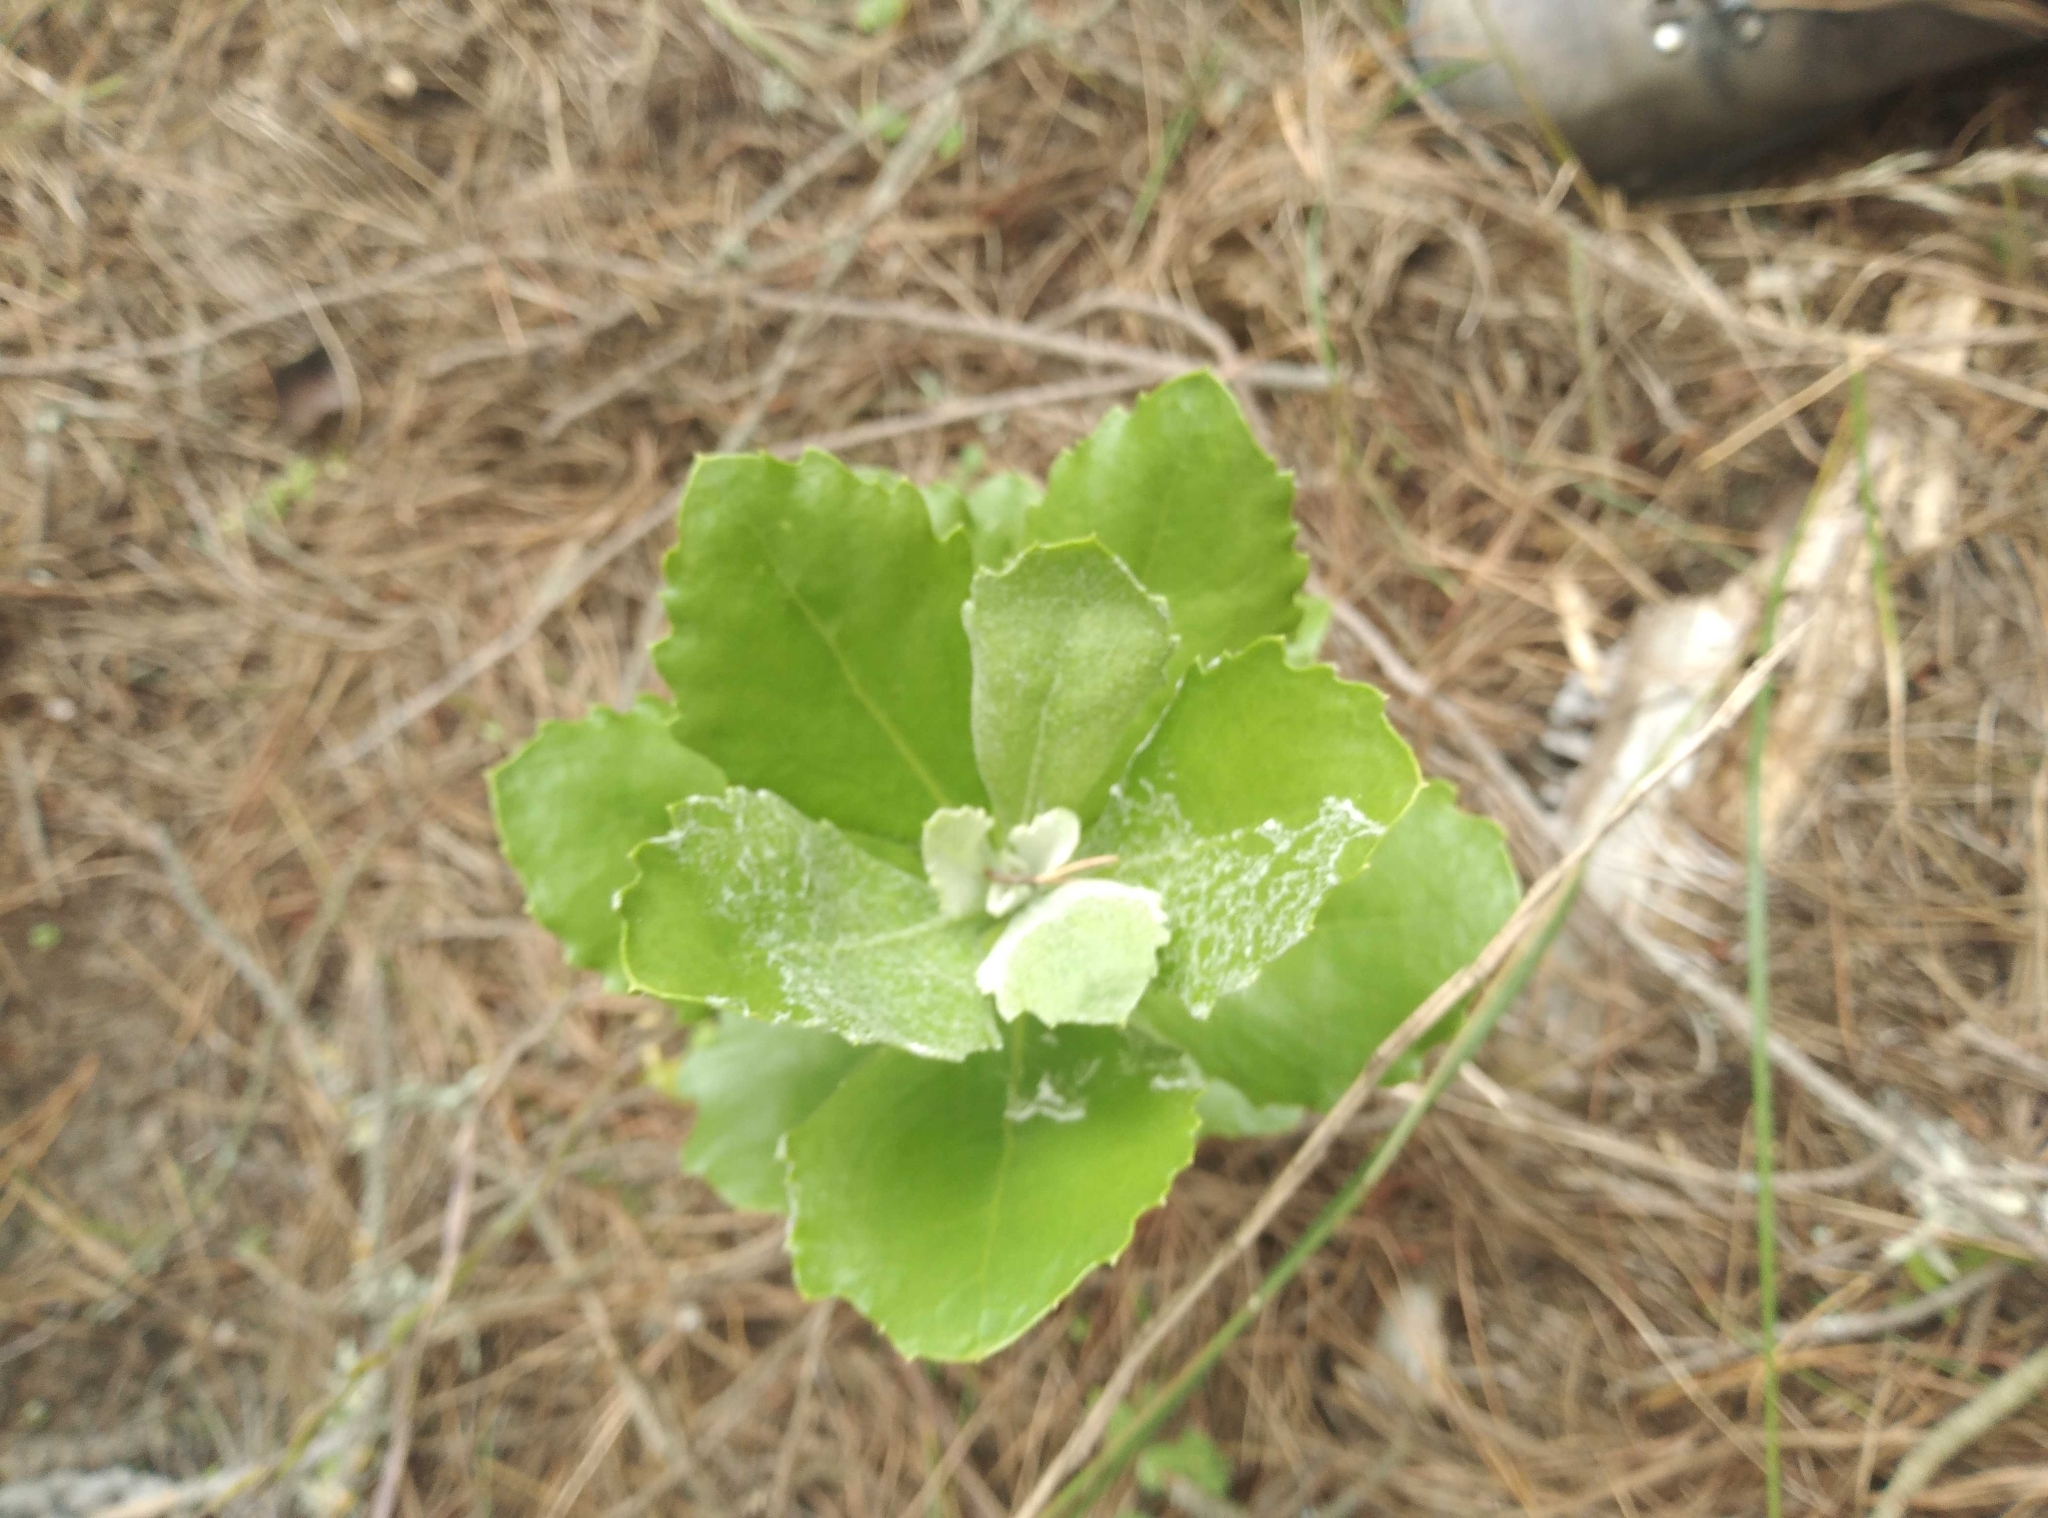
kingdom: Plantae
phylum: Tracheophyta
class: Magnoliopsida
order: Asterales
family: Asteraceae
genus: Osteospermum
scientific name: Osteospermum moniliferum
